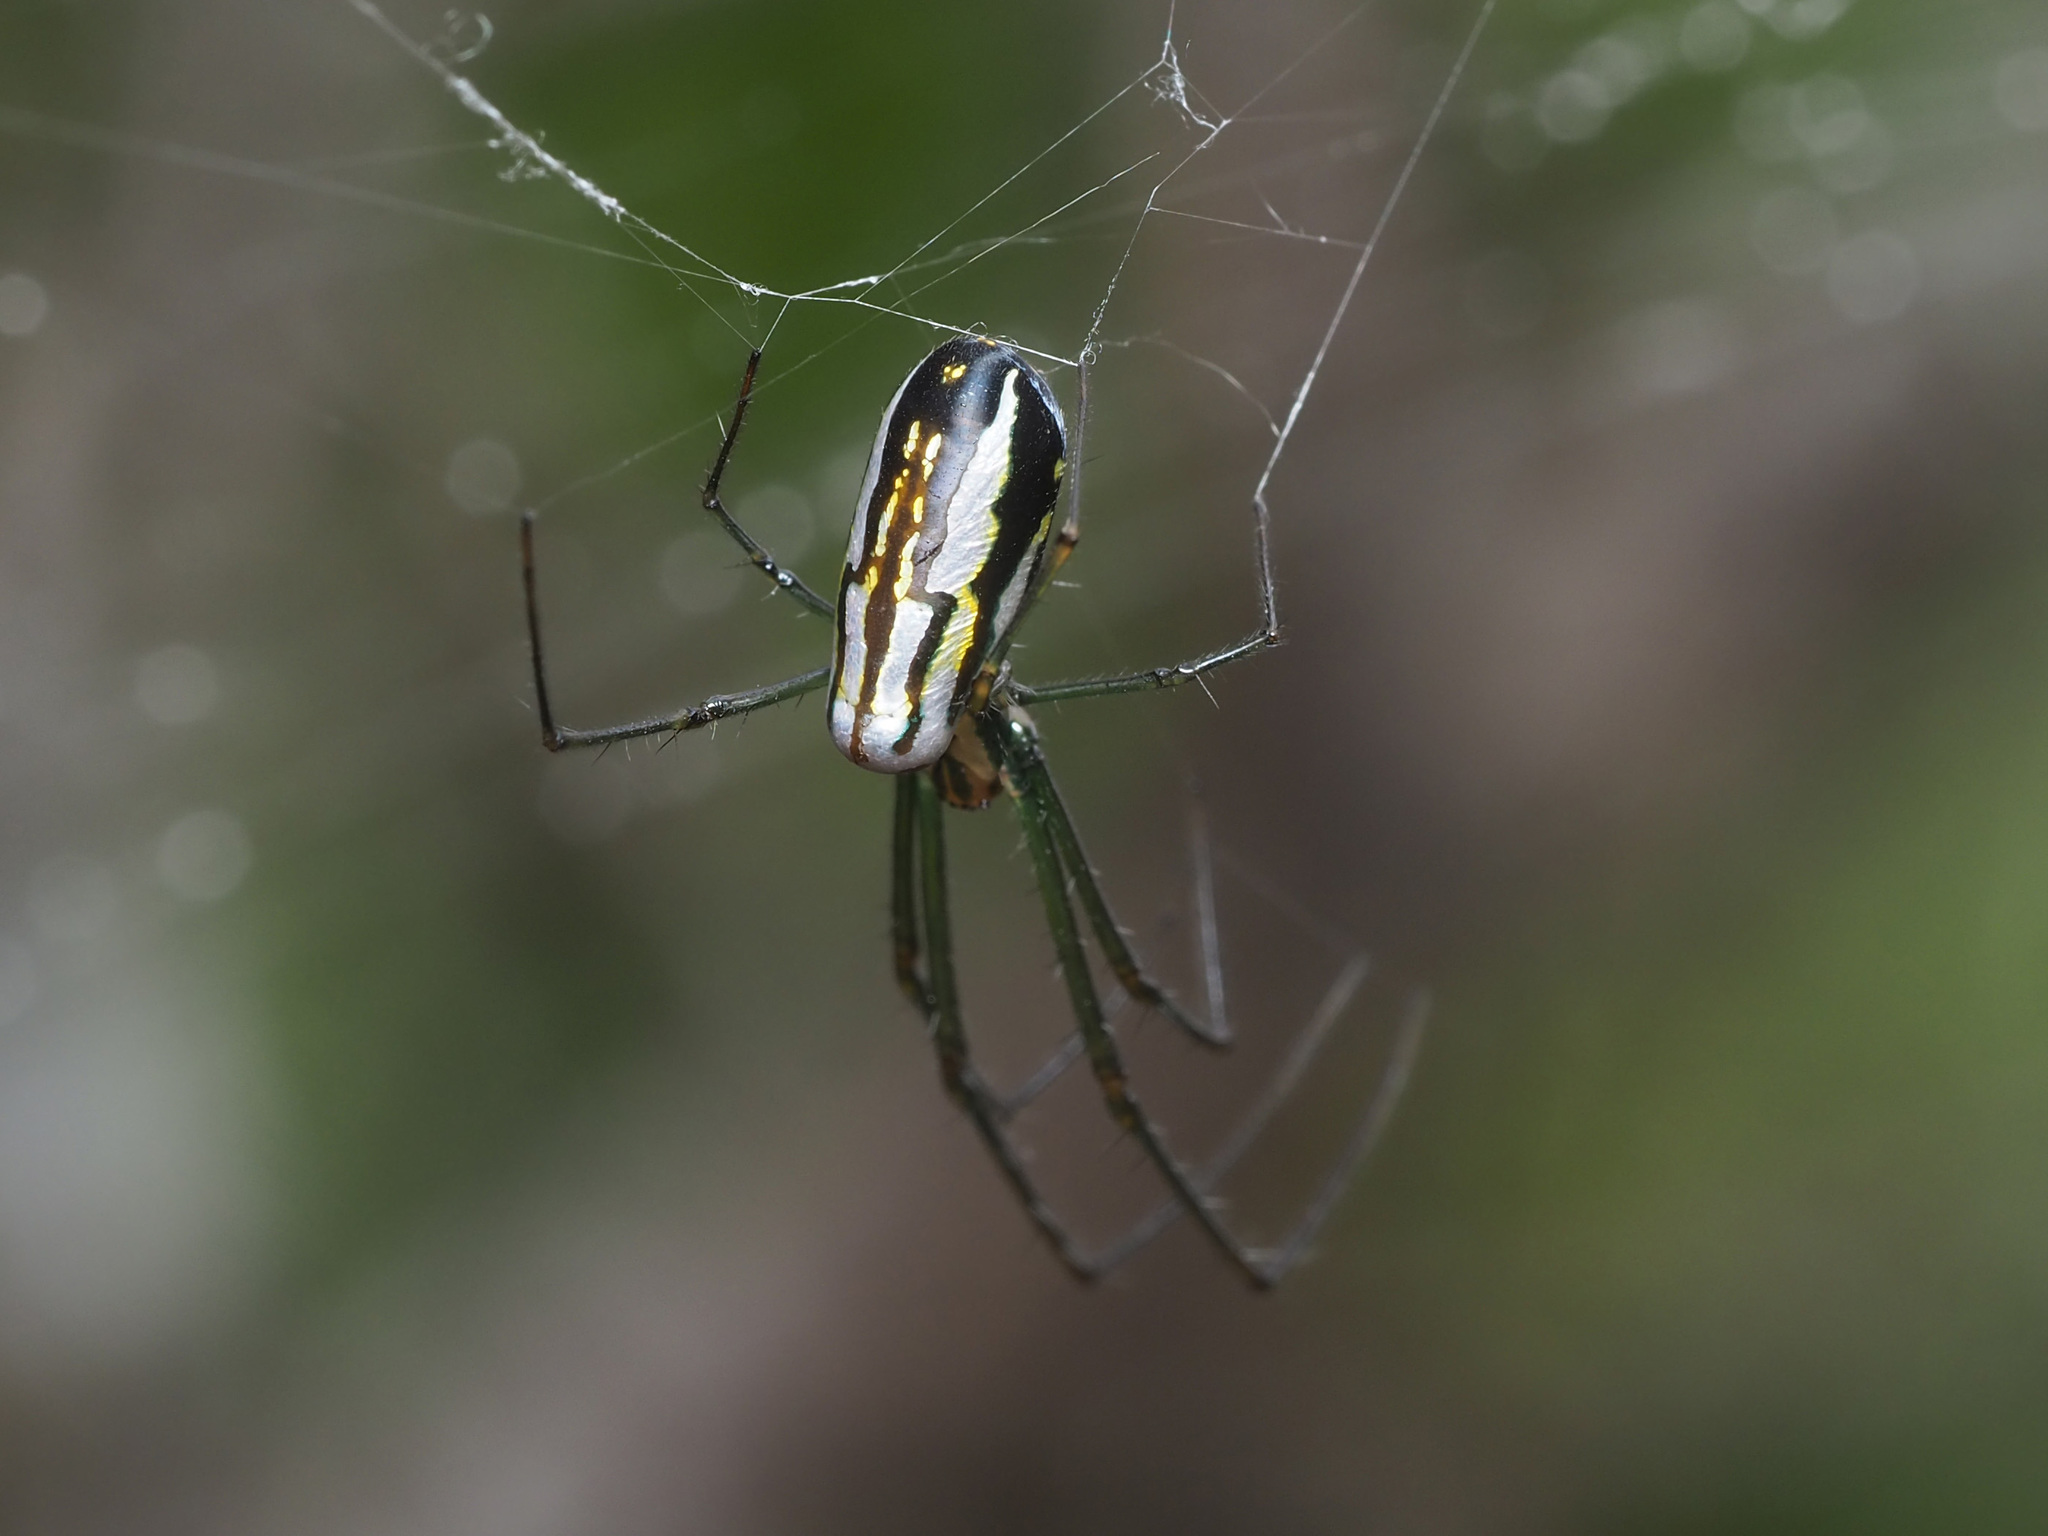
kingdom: Animalia
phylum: Arthropoda
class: Arachnida
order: Araneae
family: Tetragnathidae
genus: Leucauge
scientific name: Leucauge argyra
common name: Longjawed orb weavers
